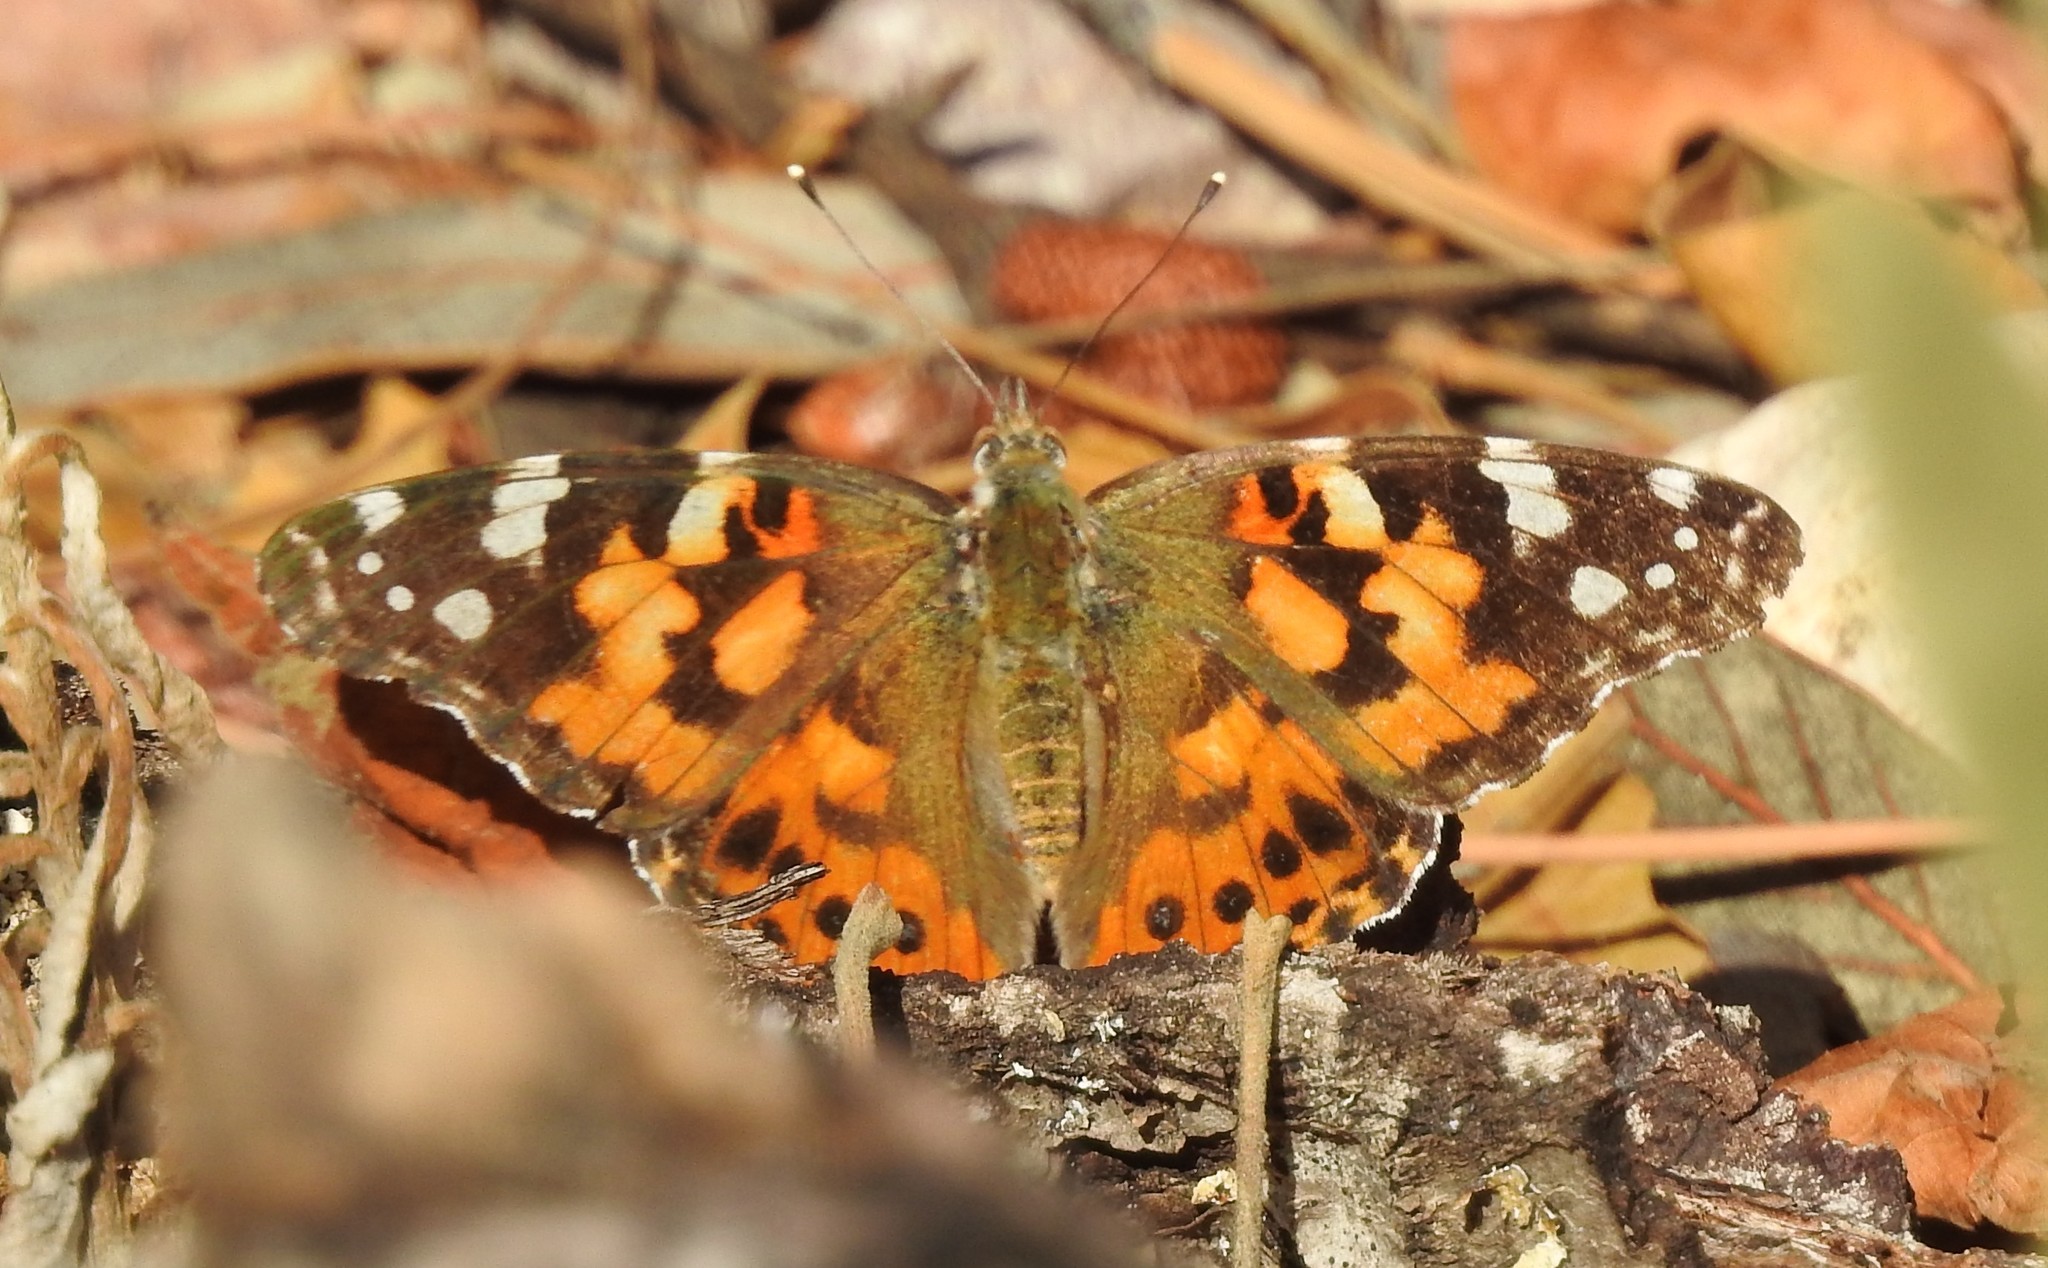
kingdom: Animalia
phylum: Arthropoda
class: Insecta
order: Lepidoptera
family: Nymphalidae
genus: Vanessa
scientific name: Vanessa cardui
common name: Painted lady
